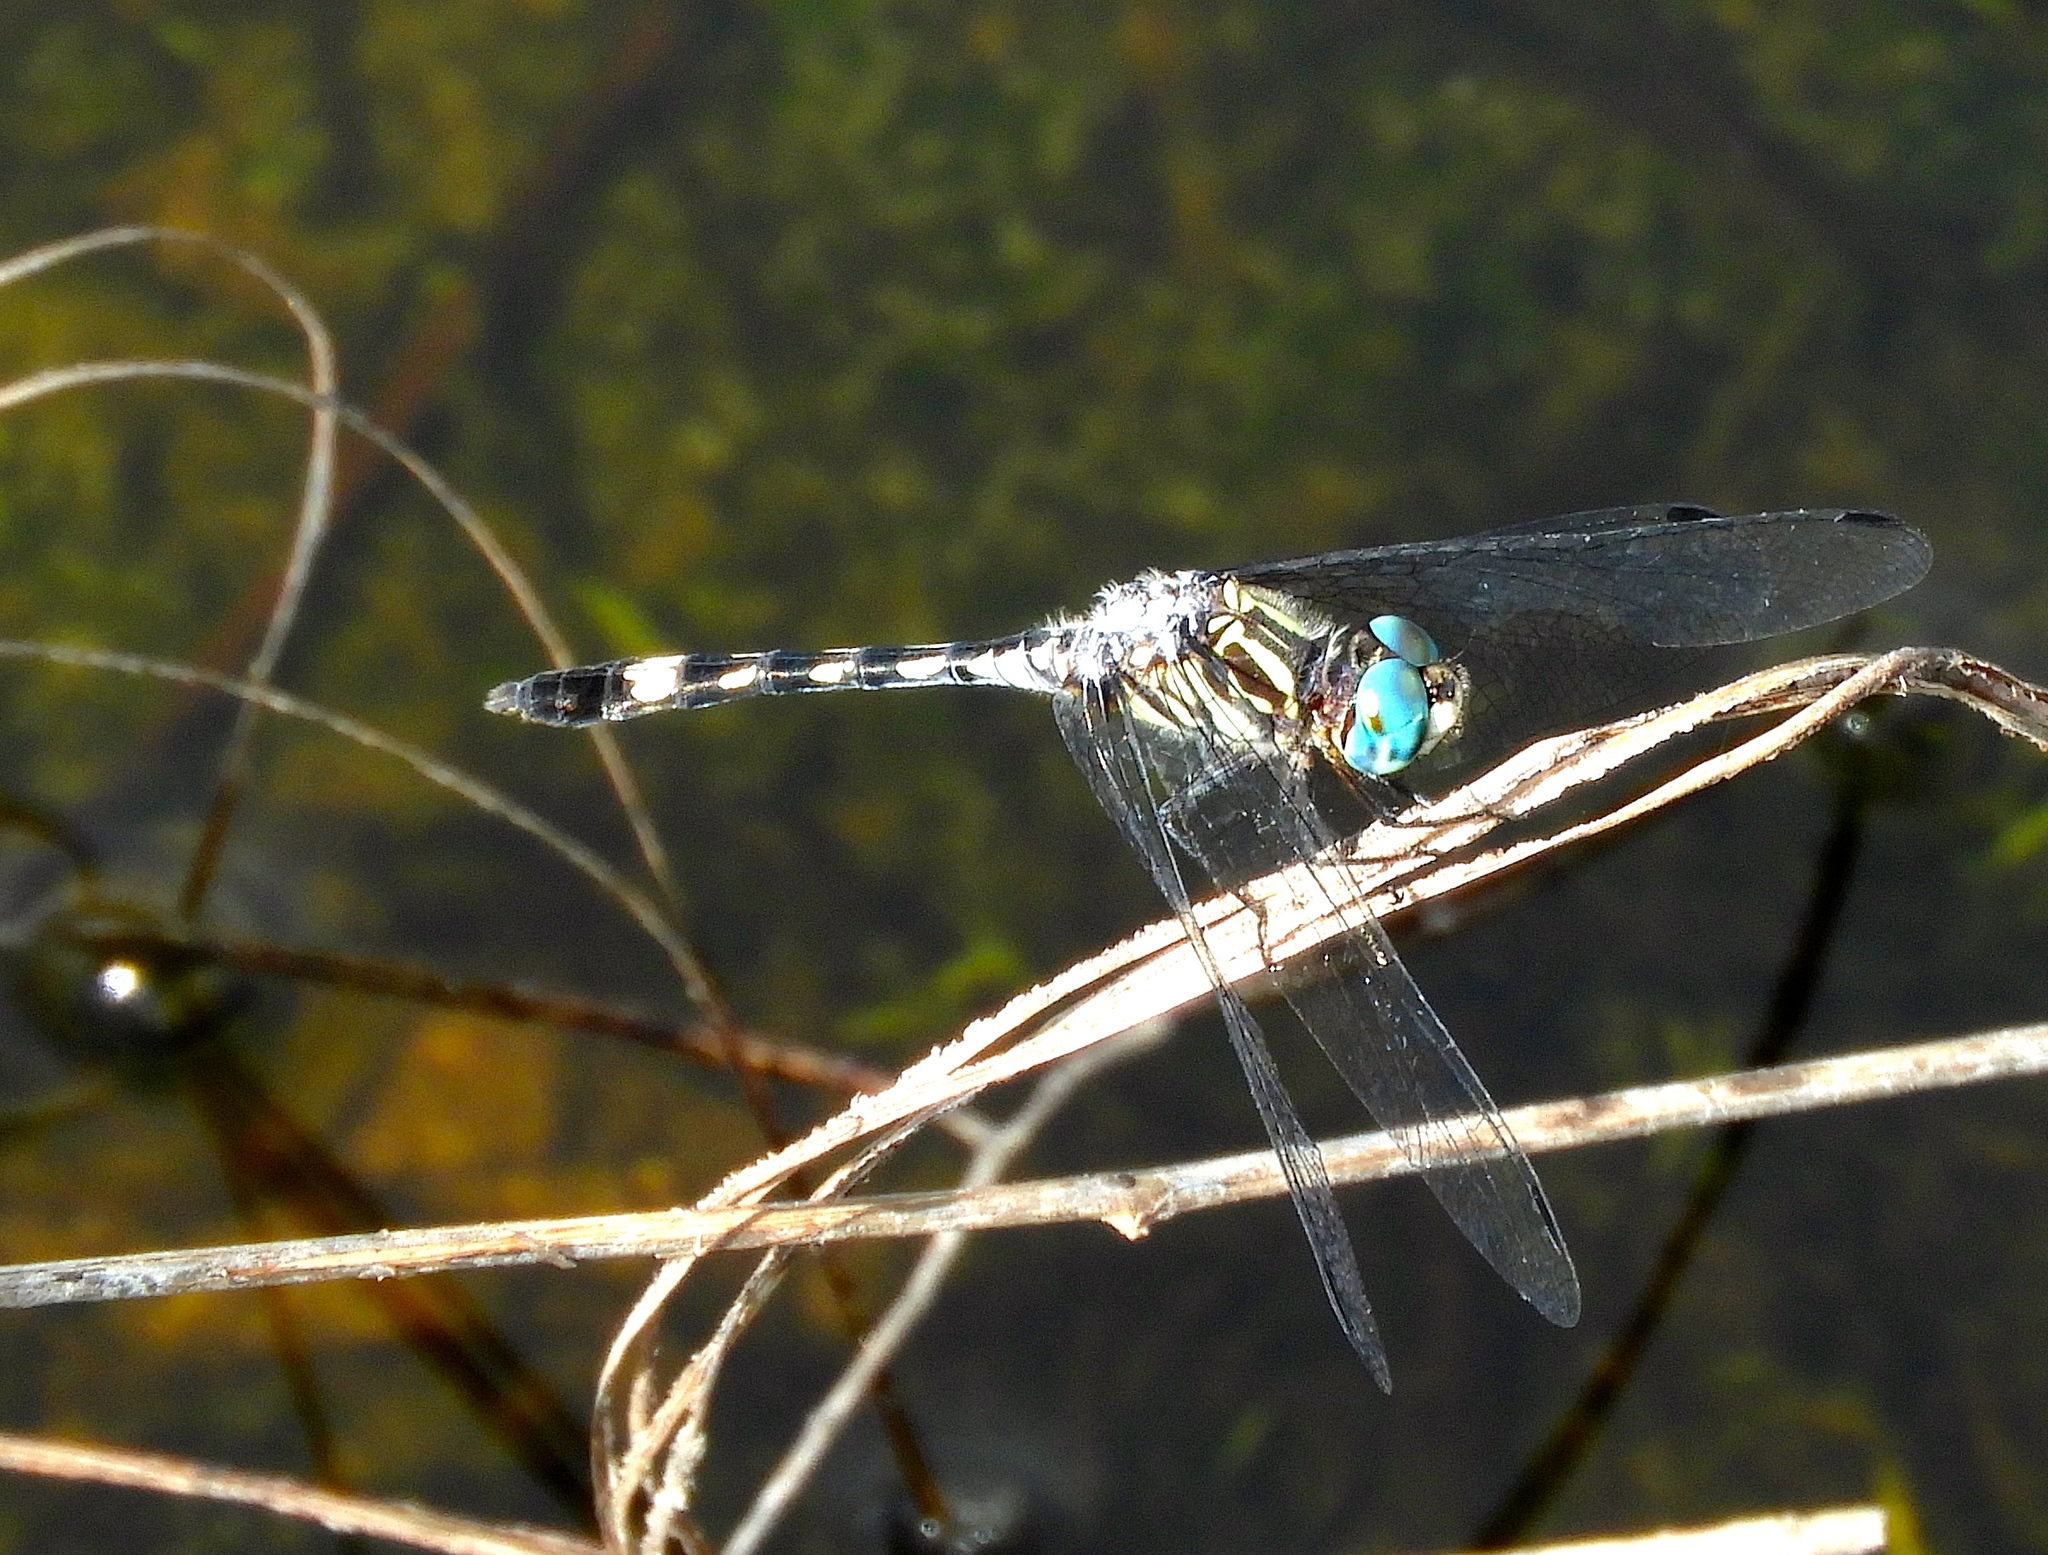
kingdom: Animalia
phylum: Arthropoda
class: Insecta
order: Odonata
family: Libellulidae
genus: Micrathyria
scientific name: Micrathyria hagenii
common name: Thornbush dasher
